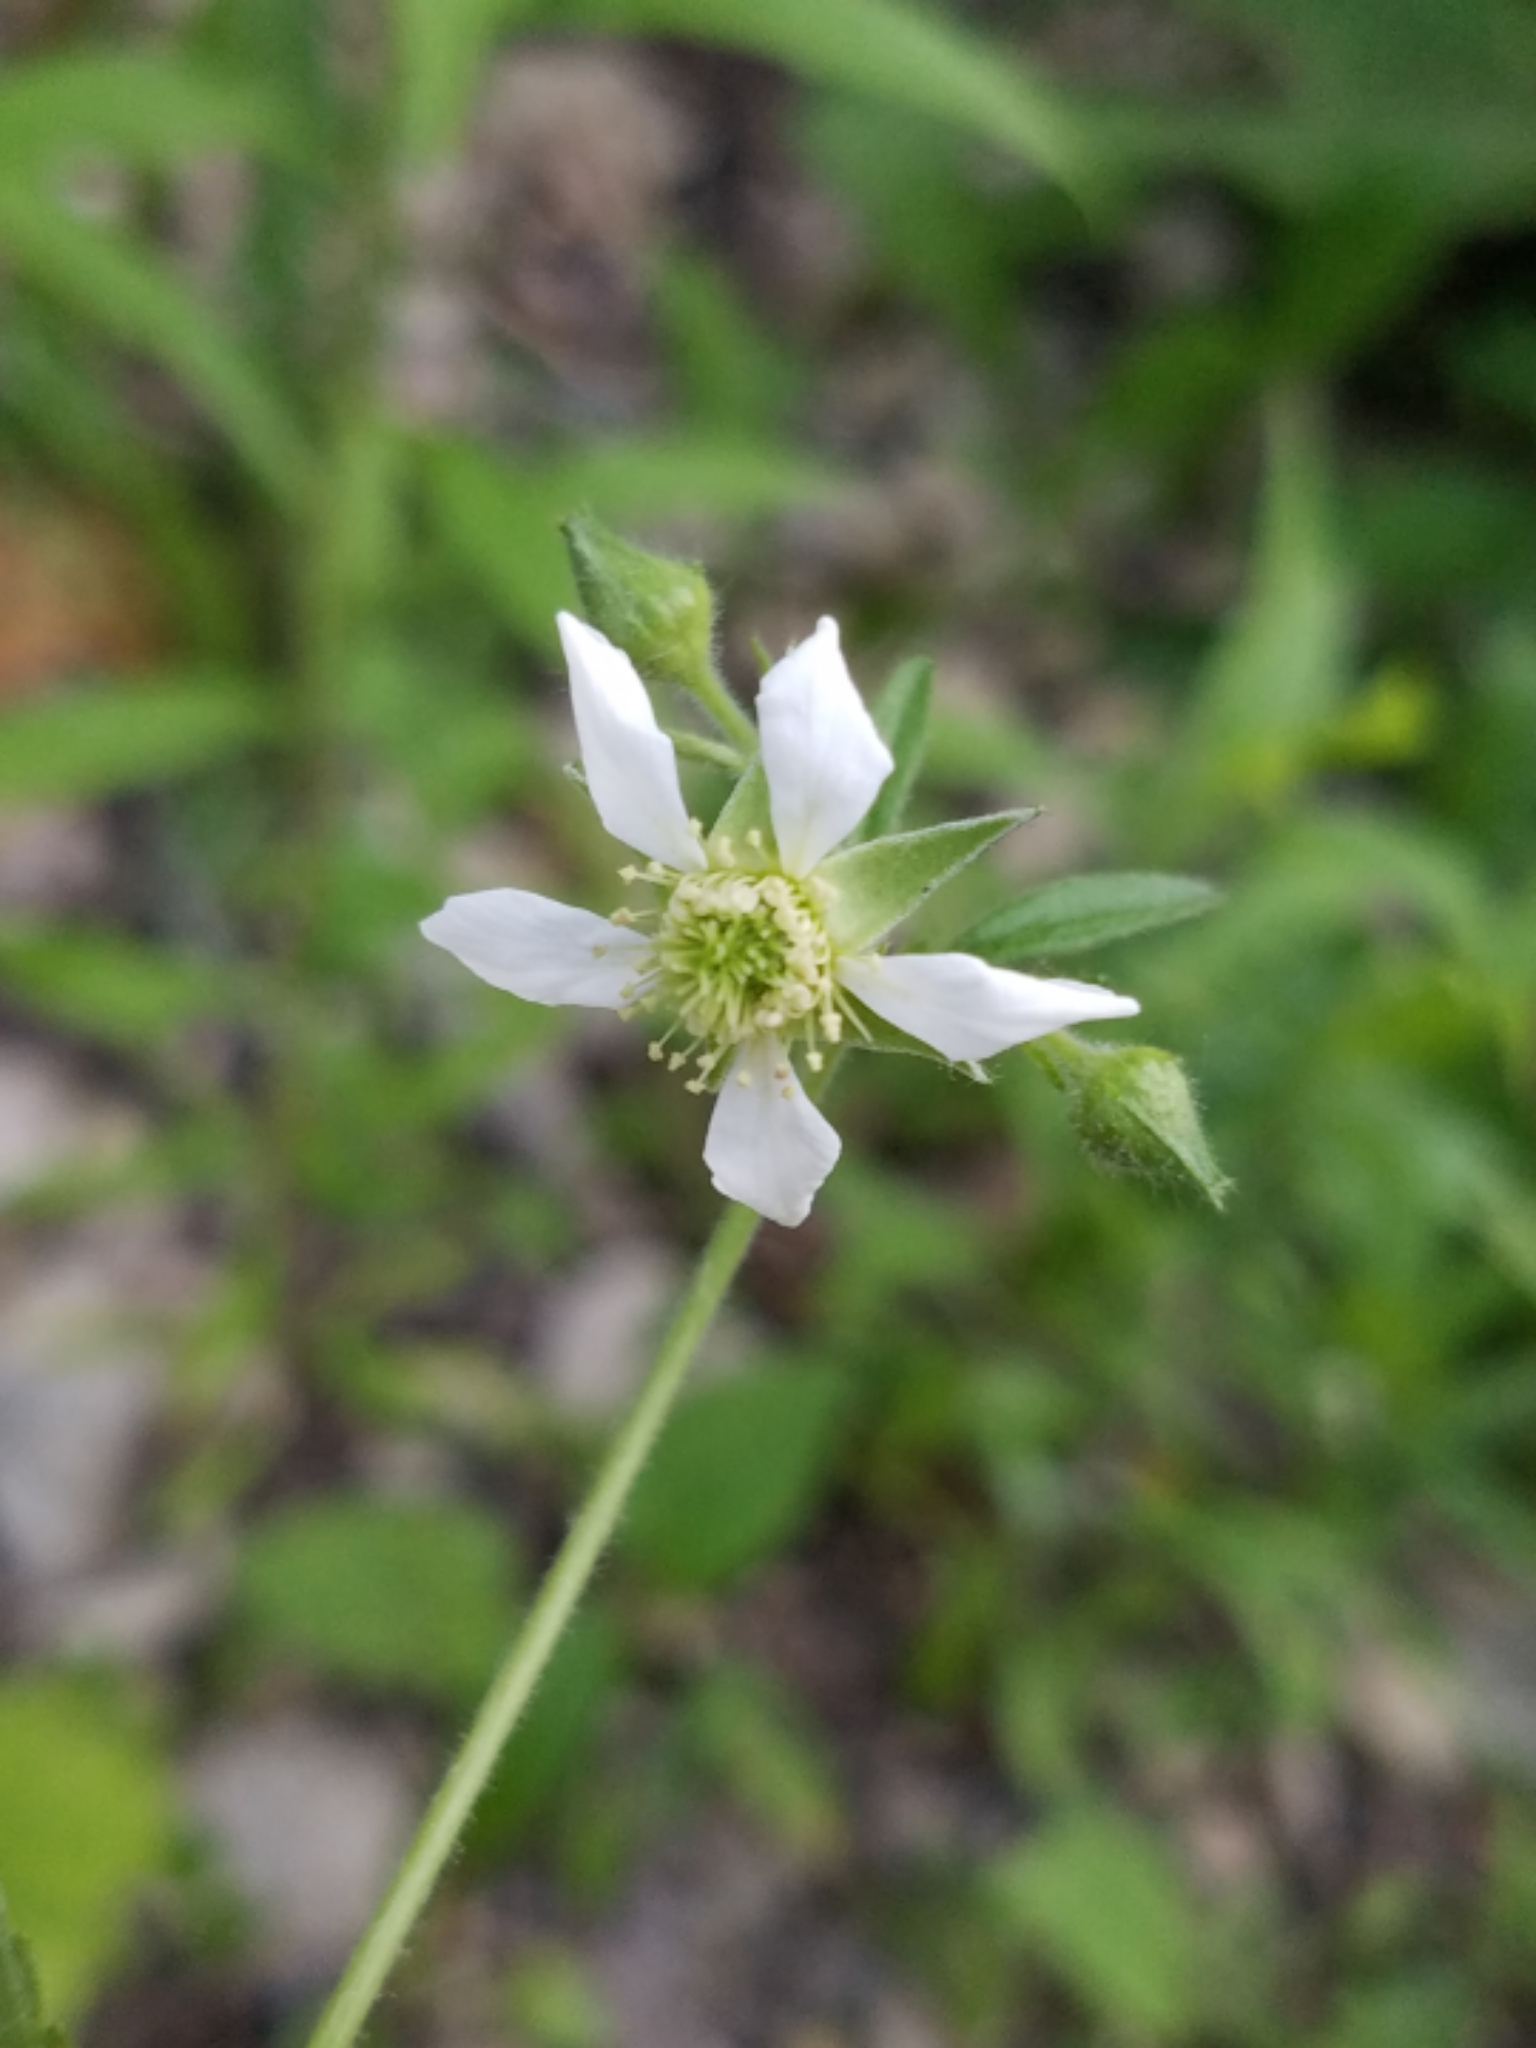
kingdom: Plantae
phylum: Tracheophyta
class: Magnoliopsida
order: Rosales
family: Rosaceae
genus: Geum
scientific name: Geum canadense
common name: White avens
